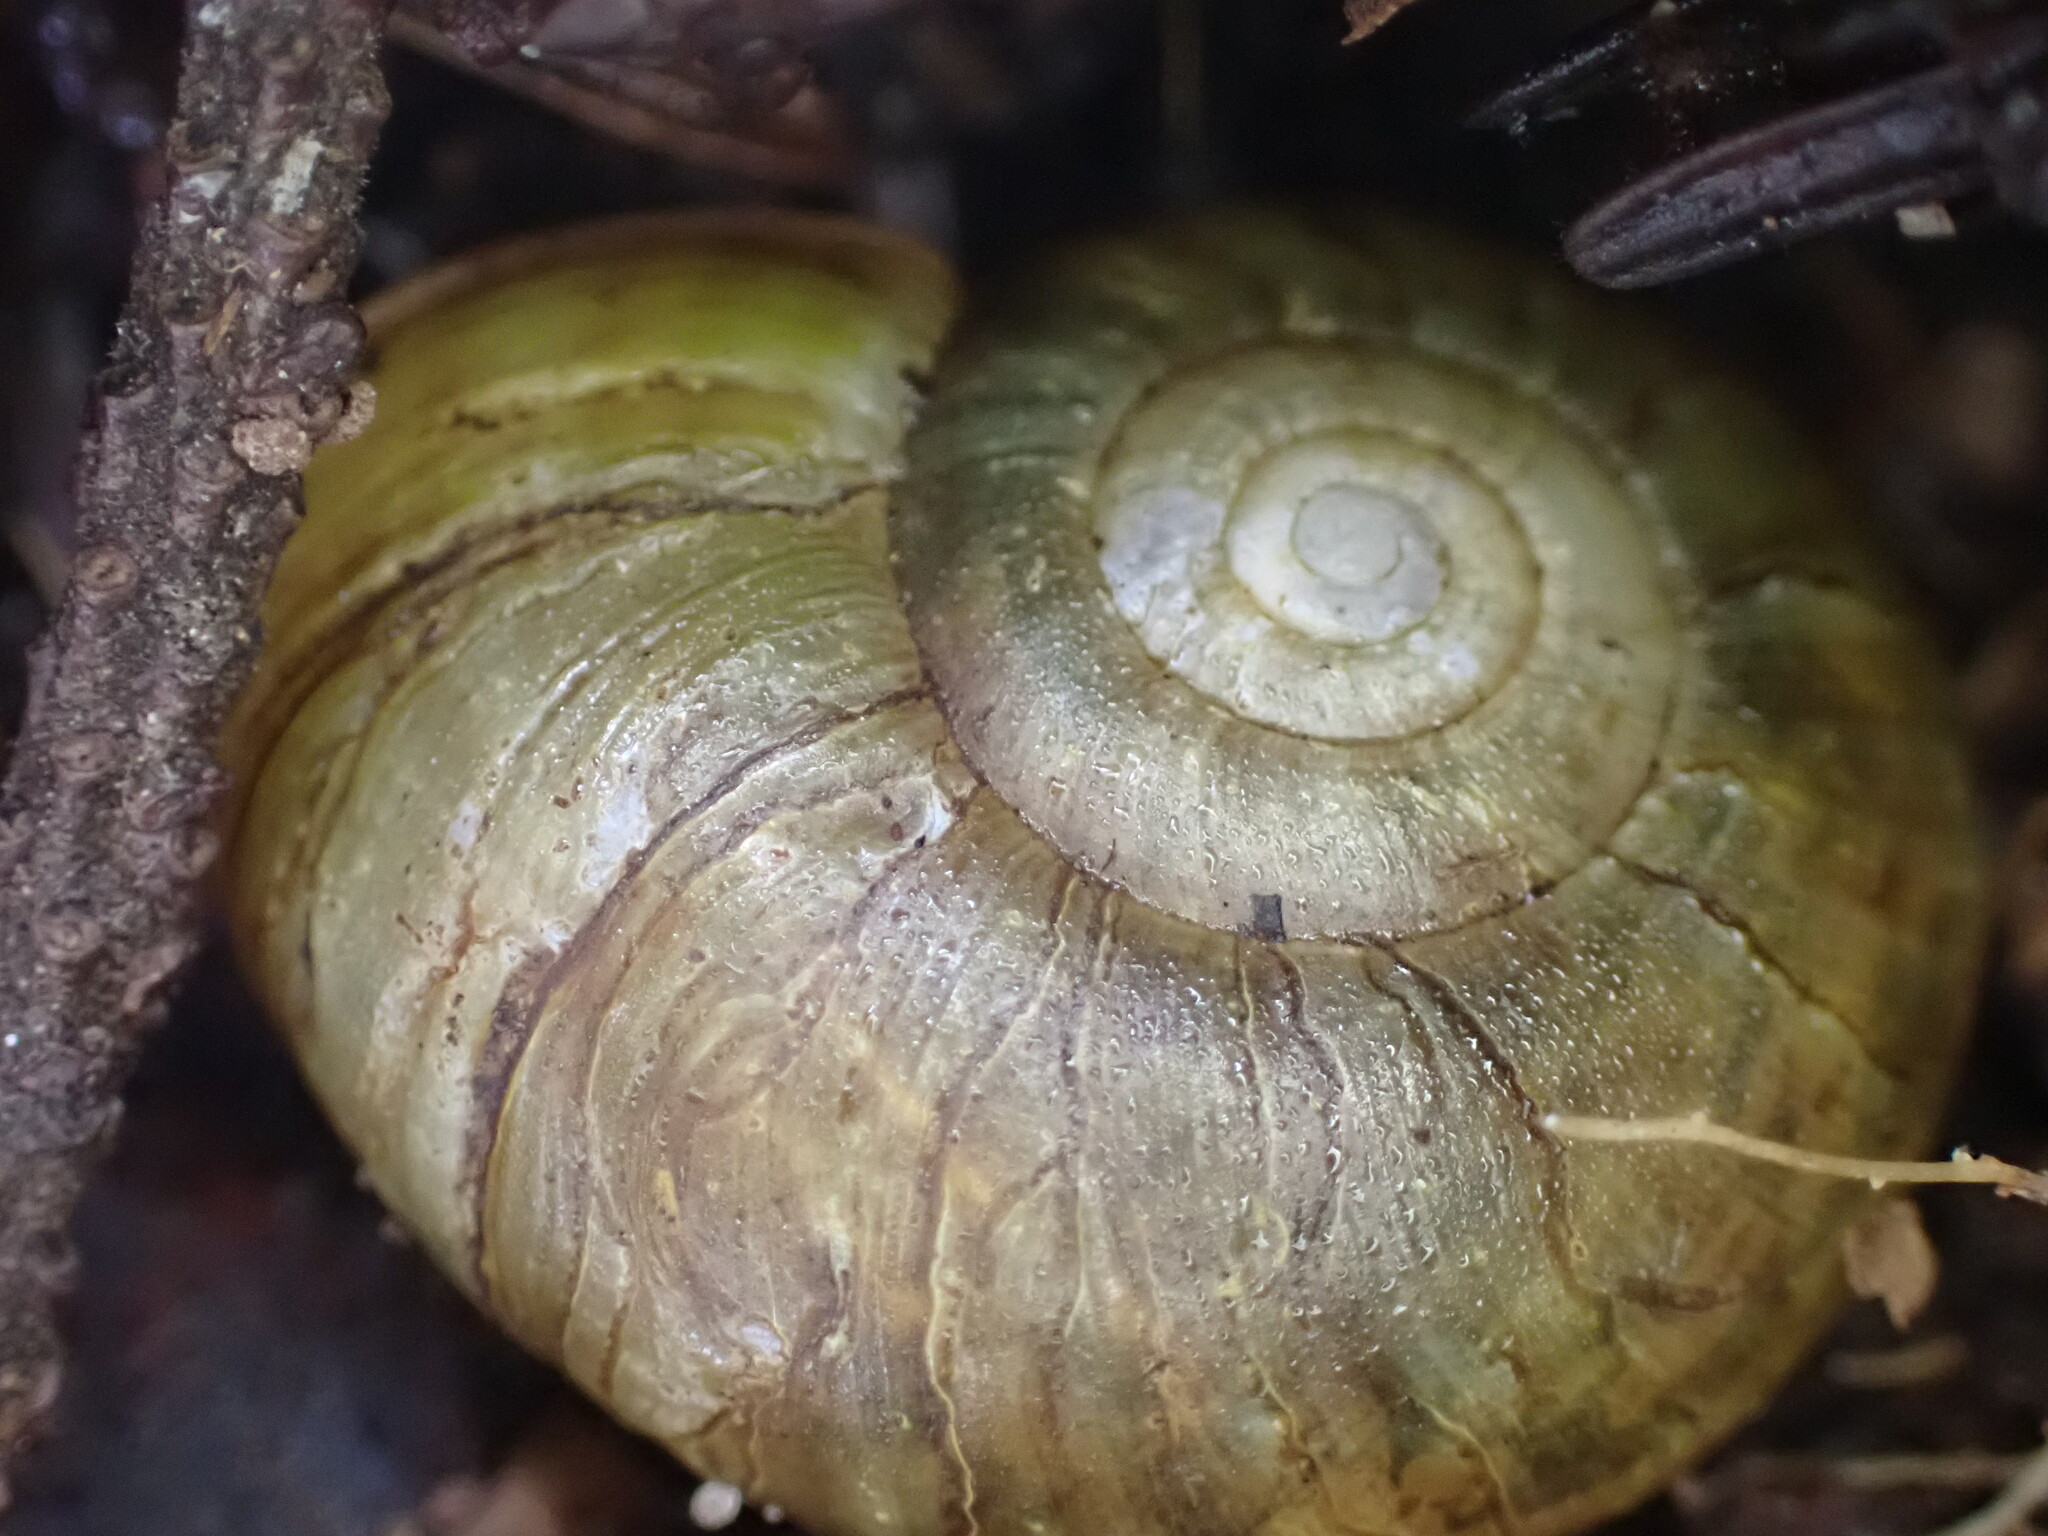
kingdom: Animalia
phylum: Mollusca
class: Gastropoda
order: Stylommatophora
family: Haplotrematidae
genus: Haplotrema
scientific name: Haplotrema vancouverense
